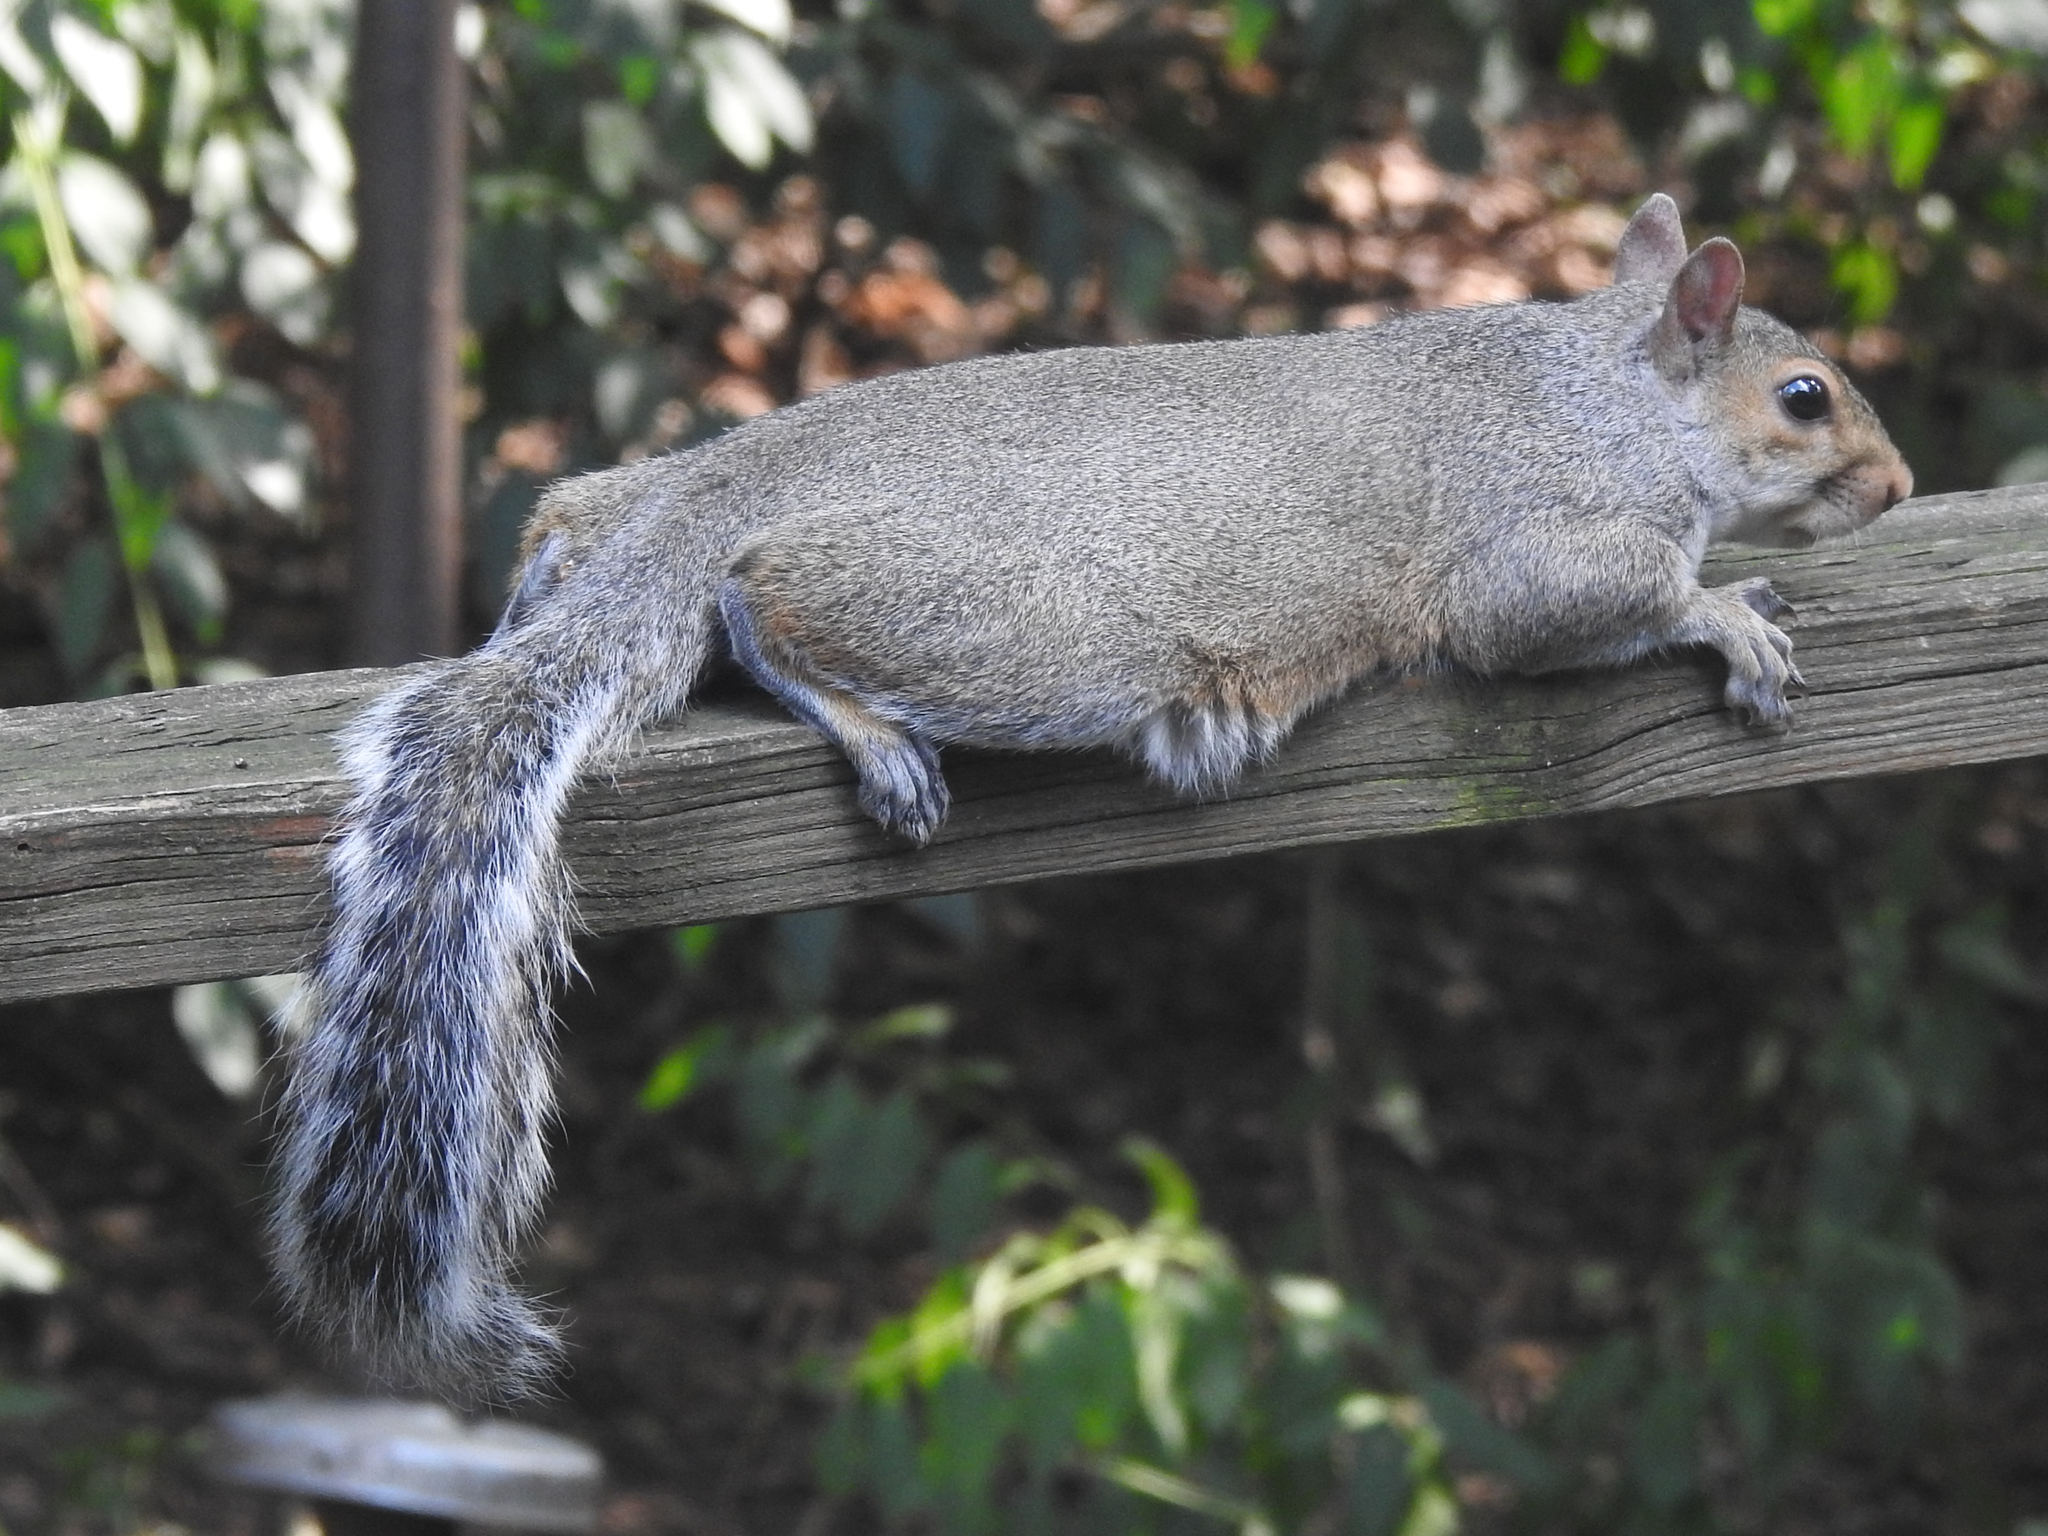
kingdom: Animalia
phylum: Chordata
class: Mammalia
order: Rodentia
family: Sciuridae
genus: Sciurus
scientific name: Sciurus carolinensis
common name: Eastern gray squirrel
